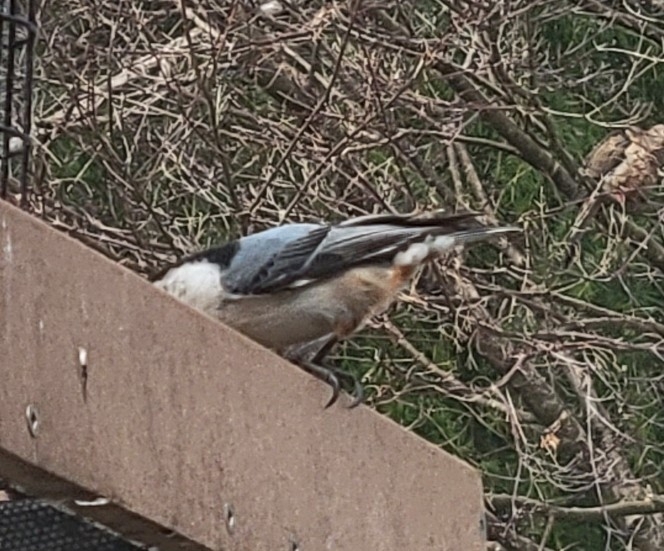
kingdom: Animalia
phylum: Chordata
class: Aves
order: Passeriformes
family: Sittidae
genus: Sitta
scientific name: Sitta carolinensis
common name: White-breasted nuthatch
